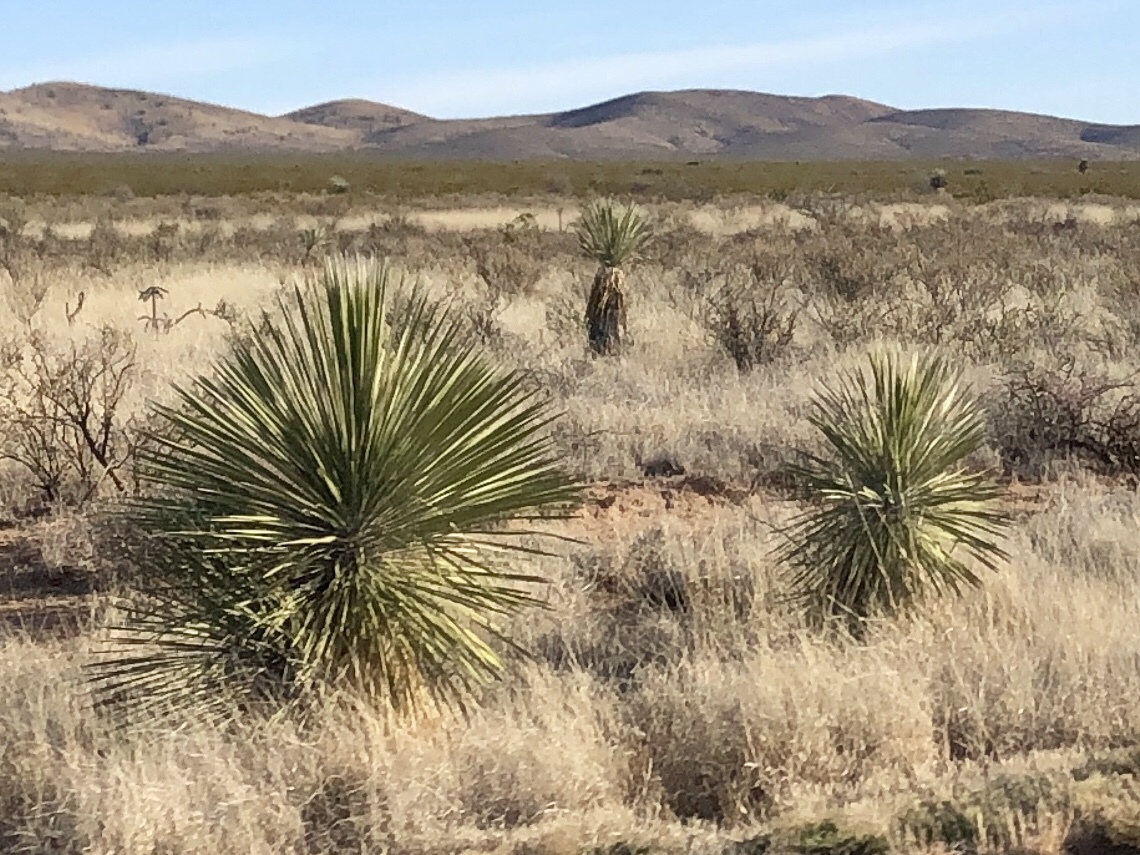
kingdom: Plantae
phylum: Tracheophyta
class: Liliopsida
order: Asparagales
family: Asparagaceae
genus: Yucca
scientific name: Yucca elata
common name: Palmella
